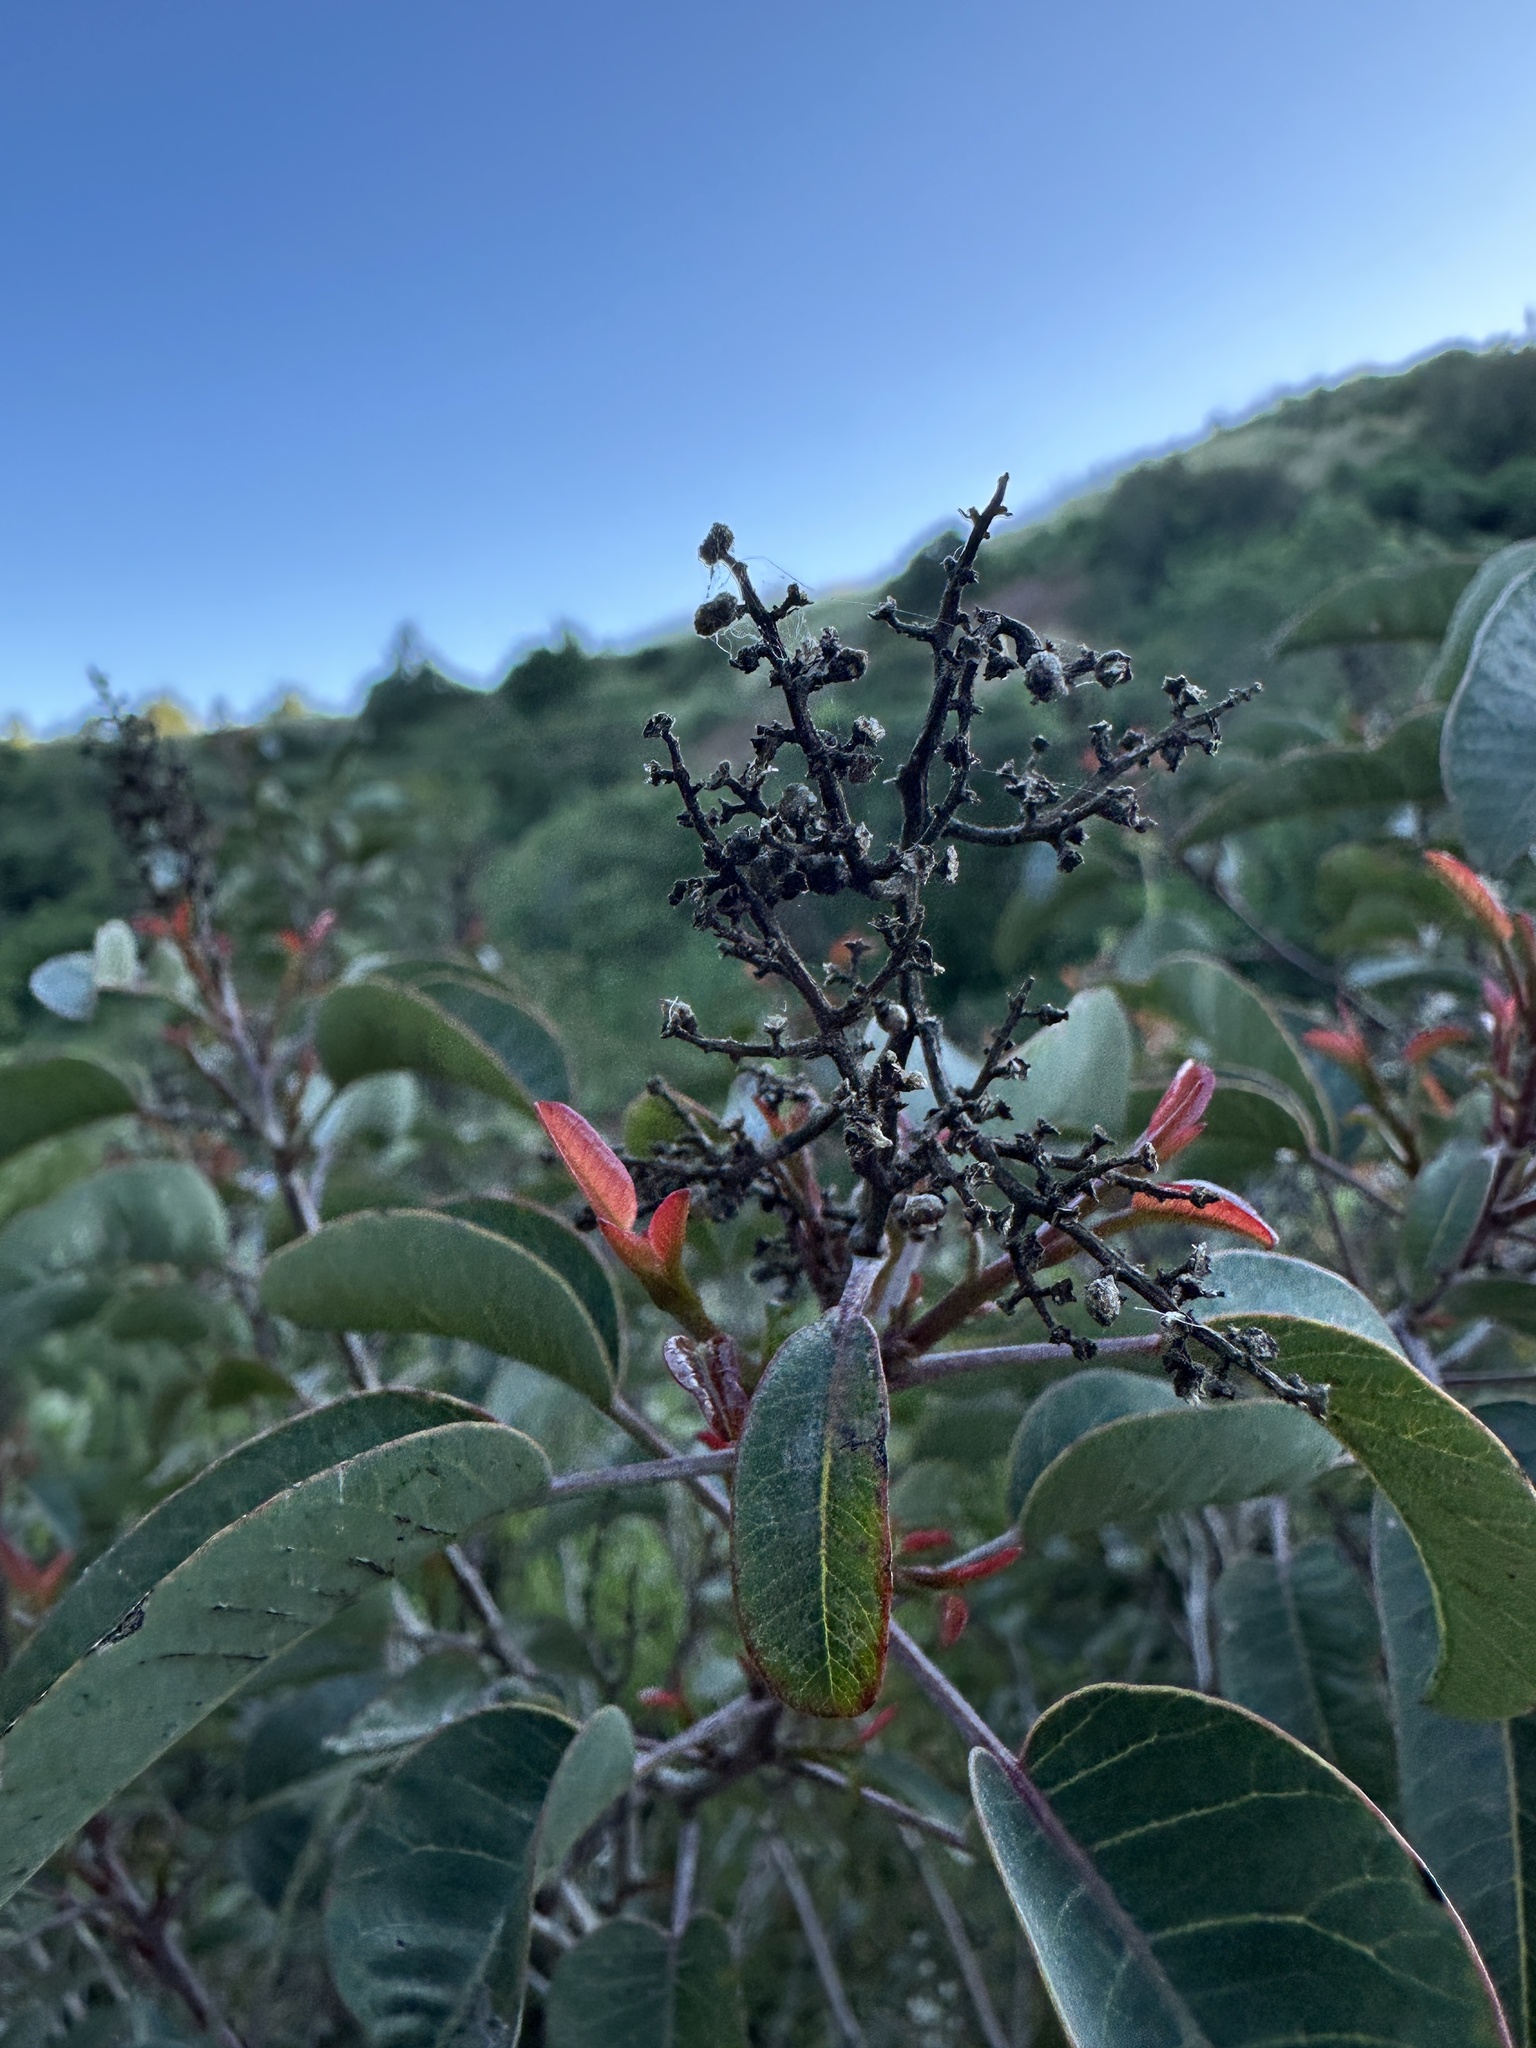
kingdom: Plantae
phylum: Tracheophyta
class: Magnoliopsida
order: Sapindales
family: Anacardiaceae
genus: Malosma
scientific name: Malosma laurina
